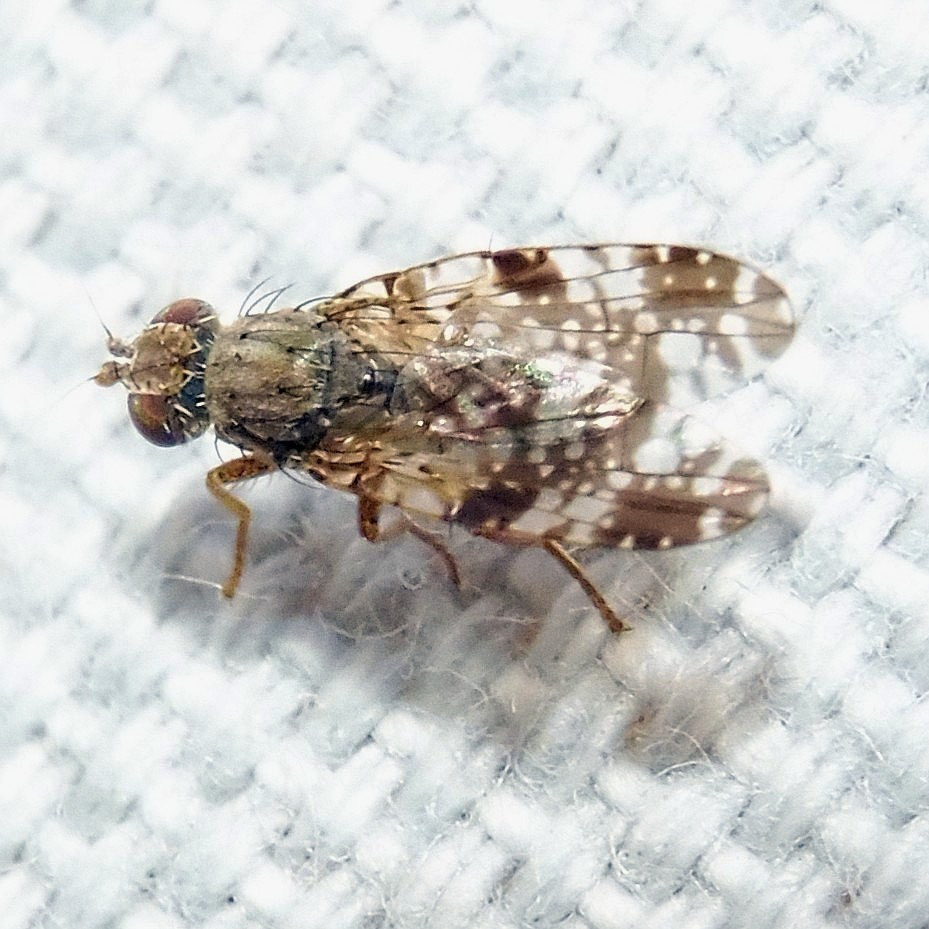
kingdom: Animalia
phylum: Arthropoda
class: Insecta
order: Diptera
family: Tephritidae
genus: Tephritis
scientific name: Tephritis vespertina
